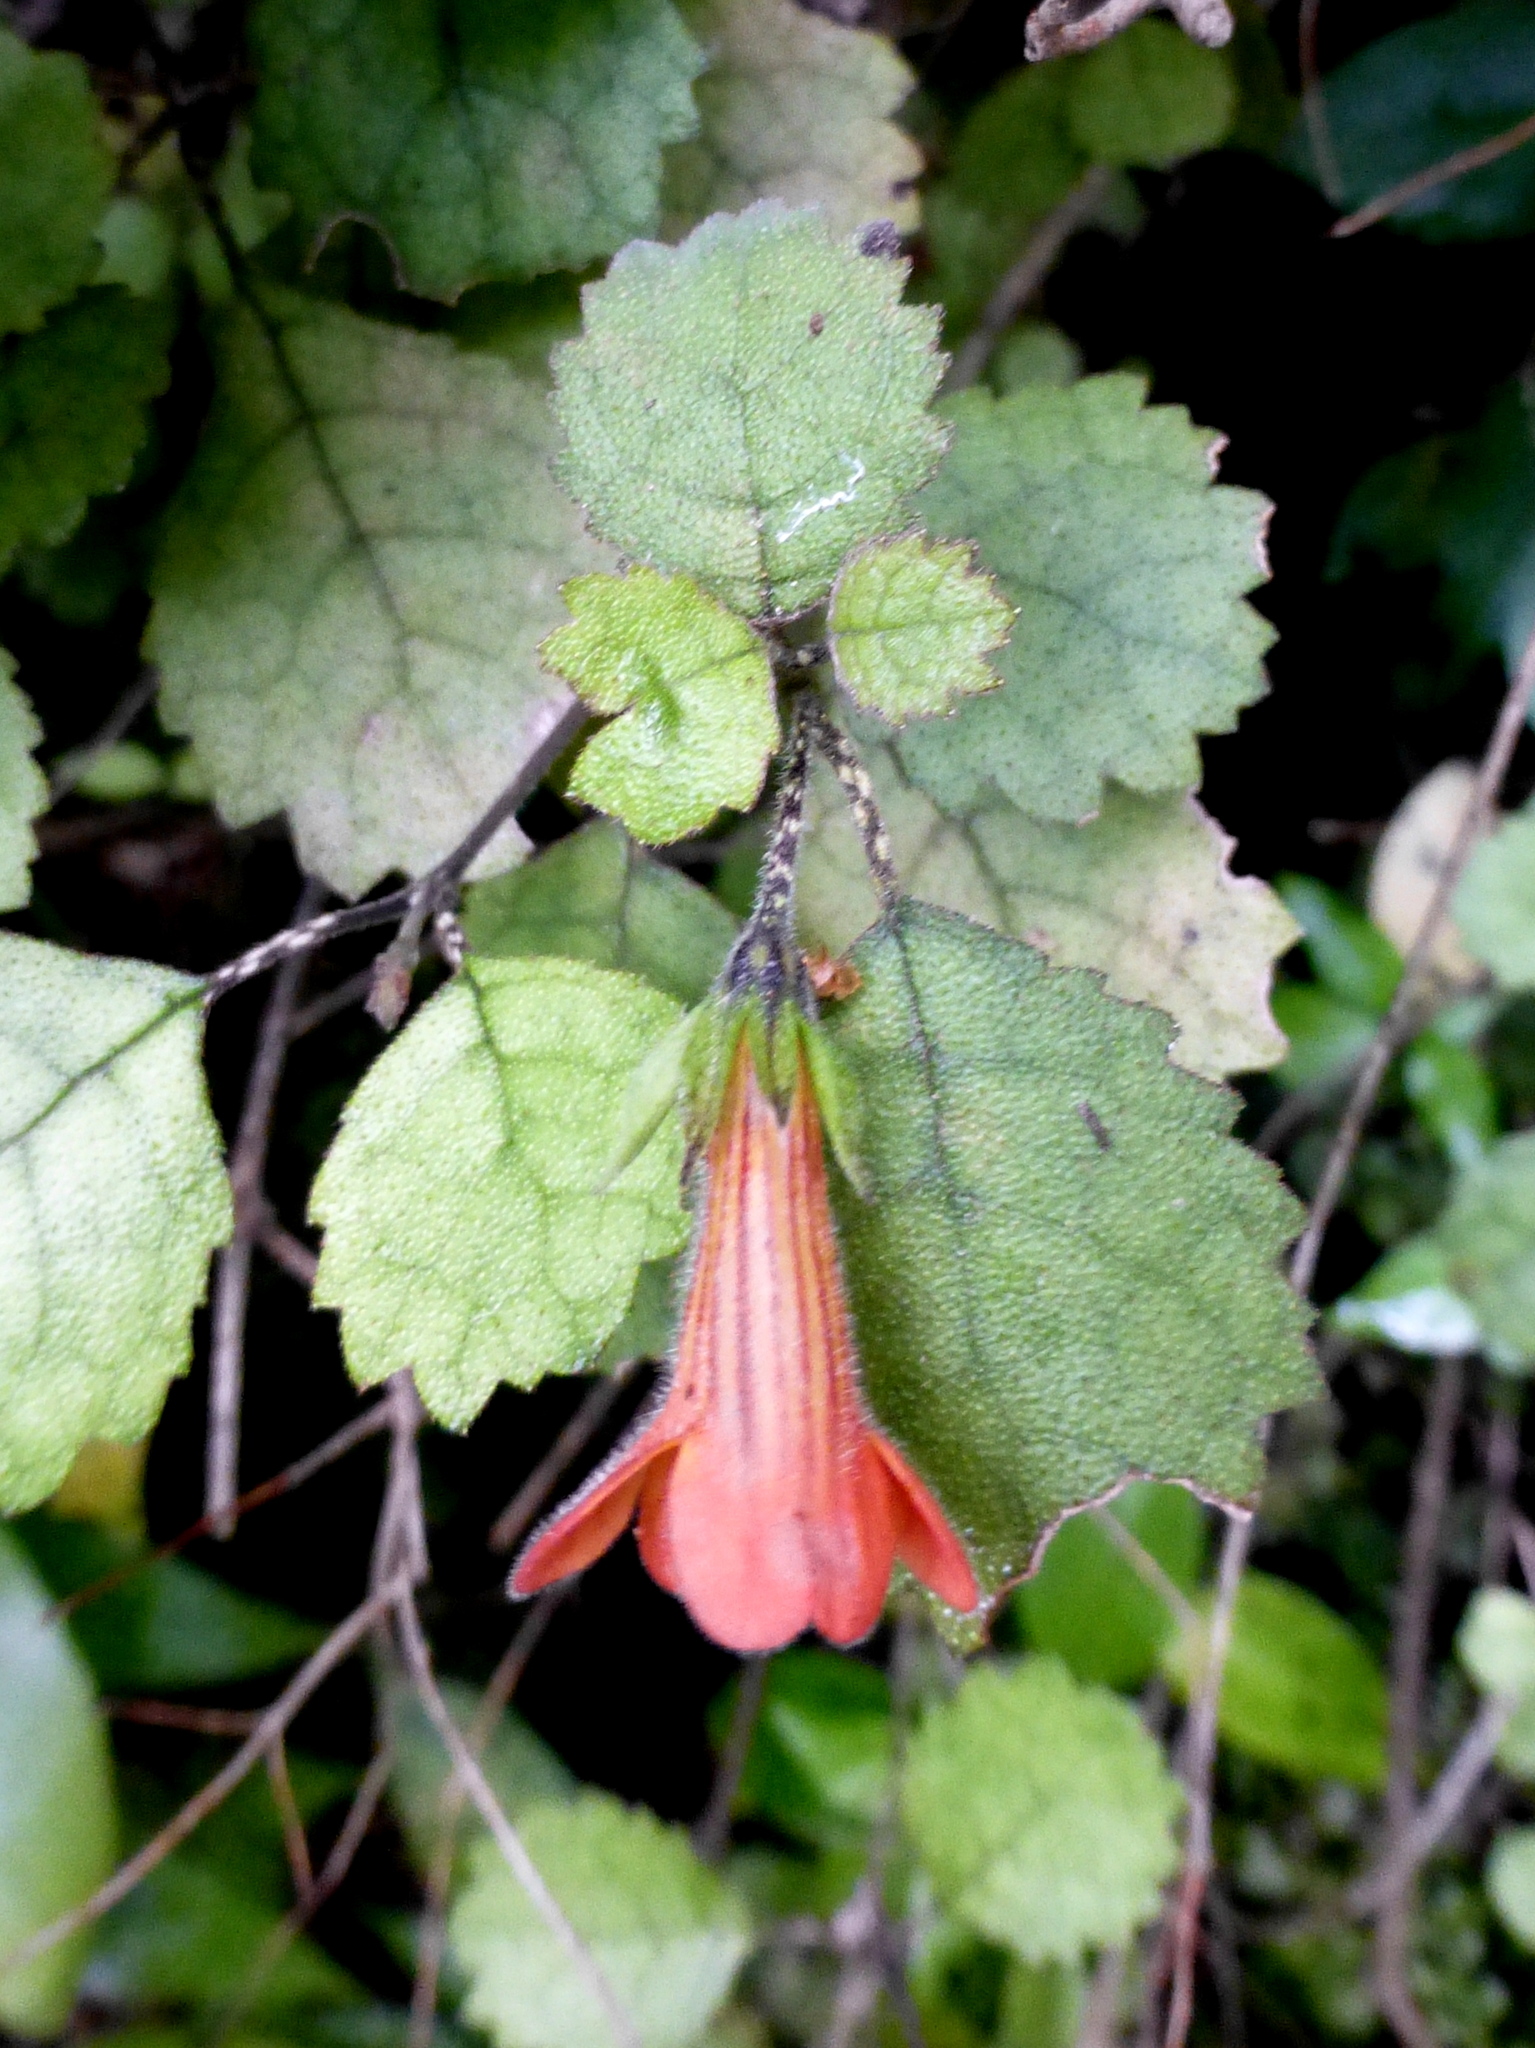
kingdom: Plantae
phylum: Tracheophyta
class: Magnoliopsida
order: Lamiales
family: Gesneriaceae
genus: Rhabdothamnus
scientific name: Rhabdothamnus solandri
